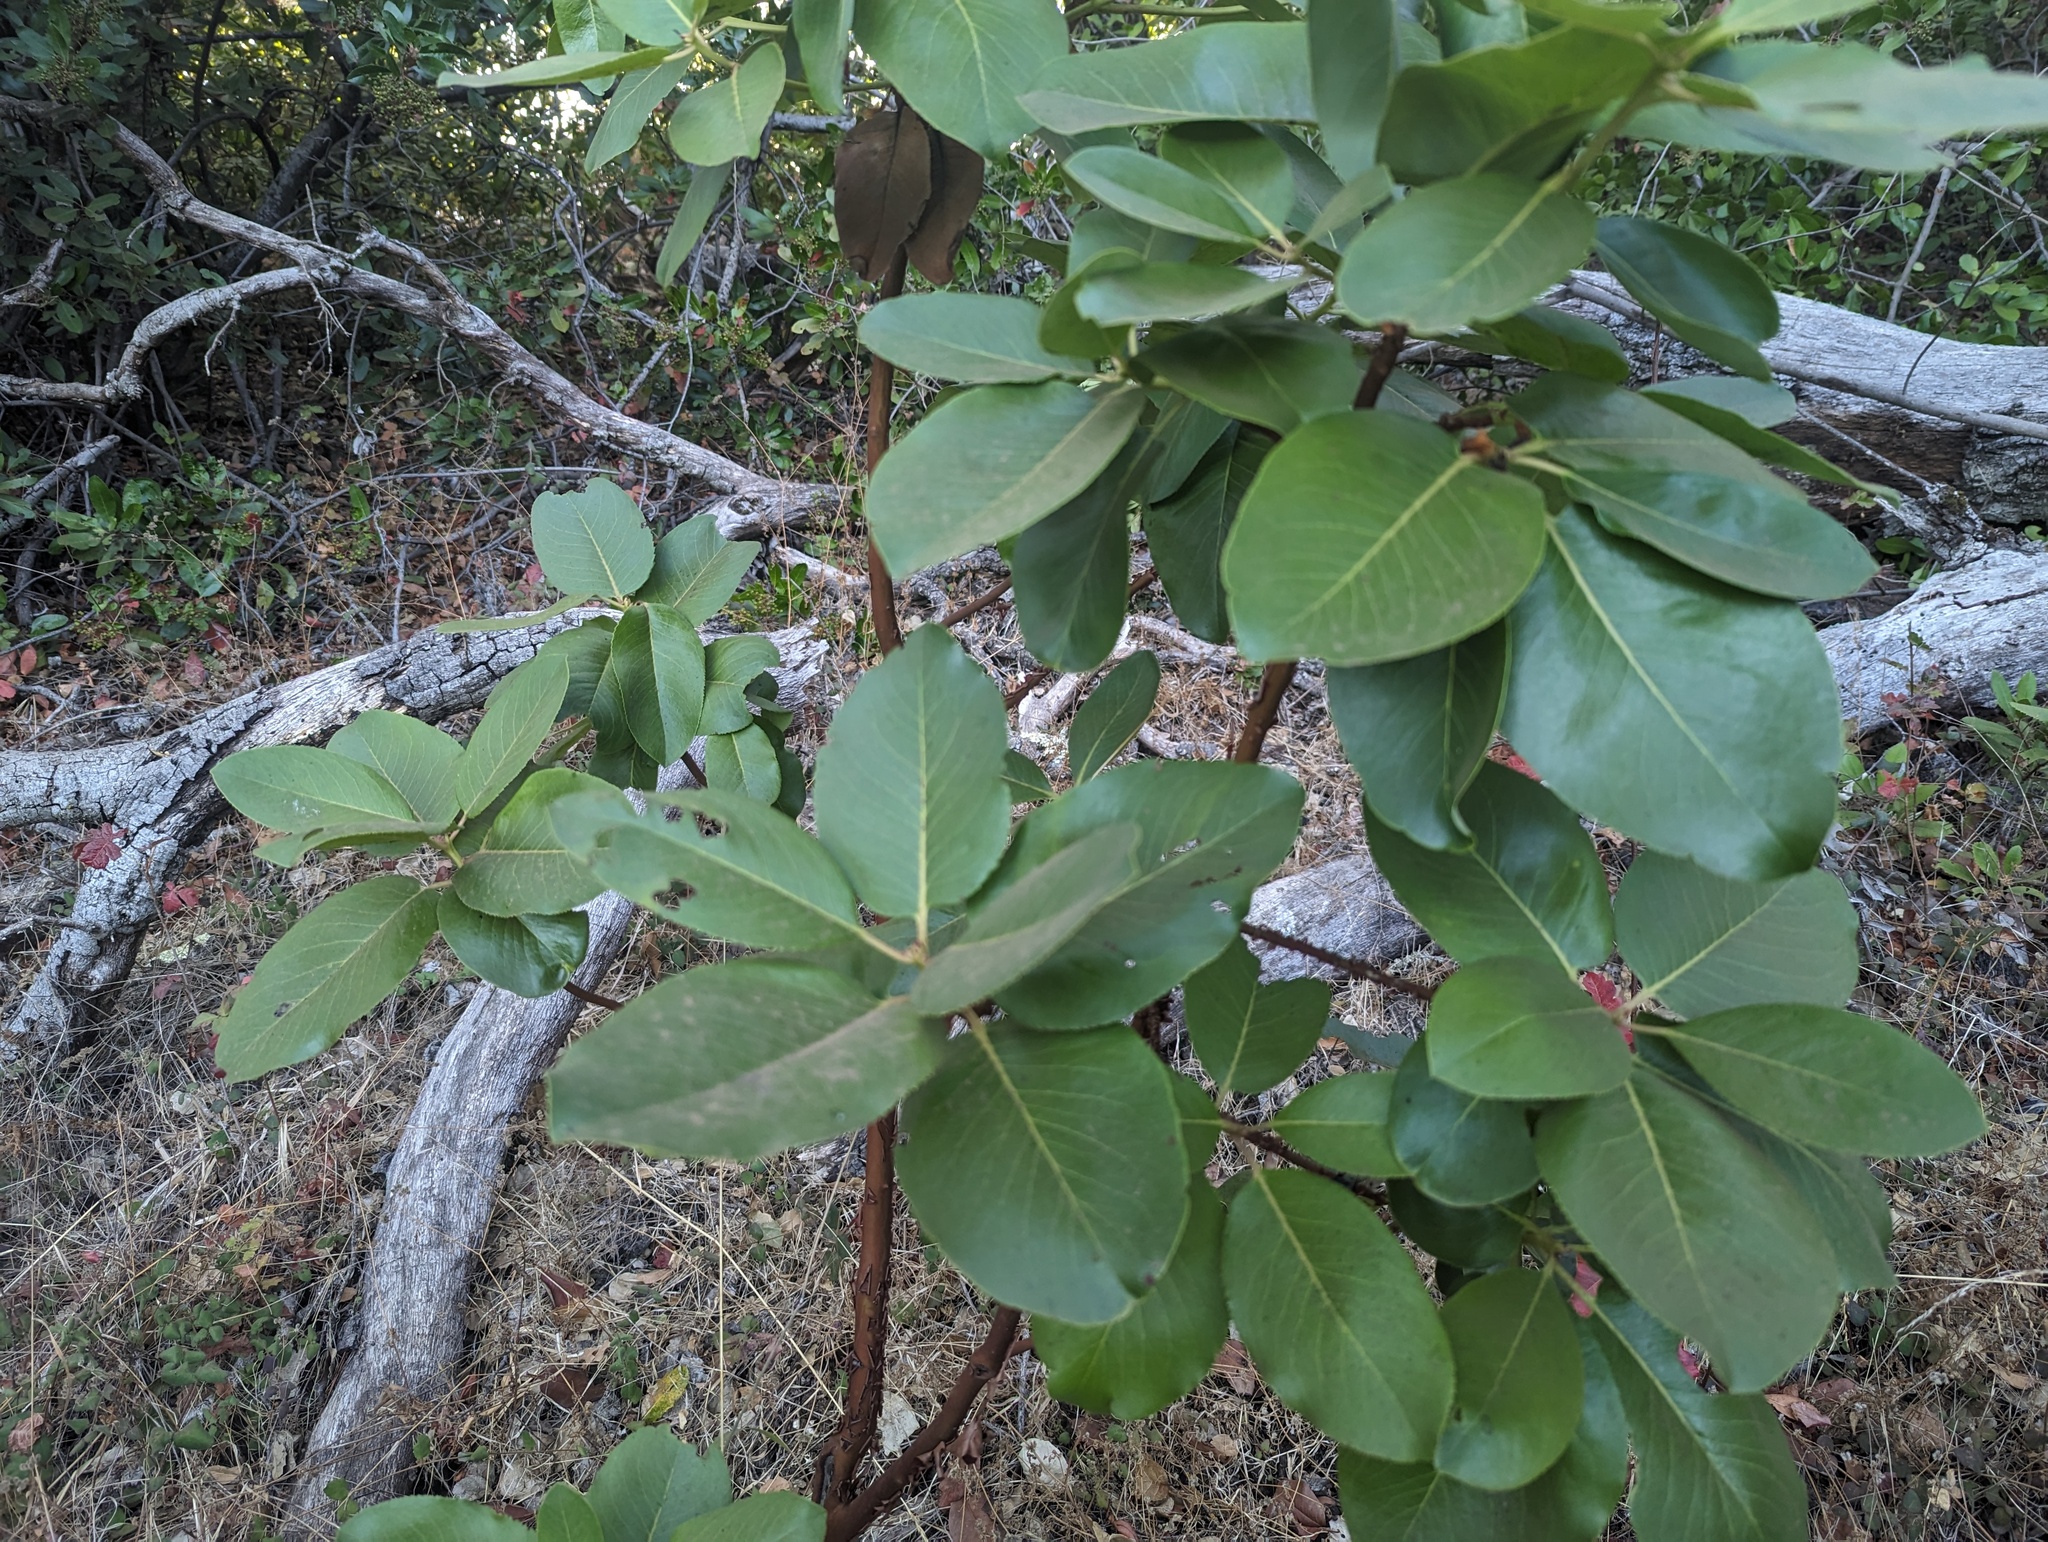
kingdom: Plantae
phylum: Tracheophyta
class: Magnoliopsida
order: Ericales
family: Ericaceae
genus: Arbutus
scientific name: Arbutus menziesii
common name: Pacific madrone
